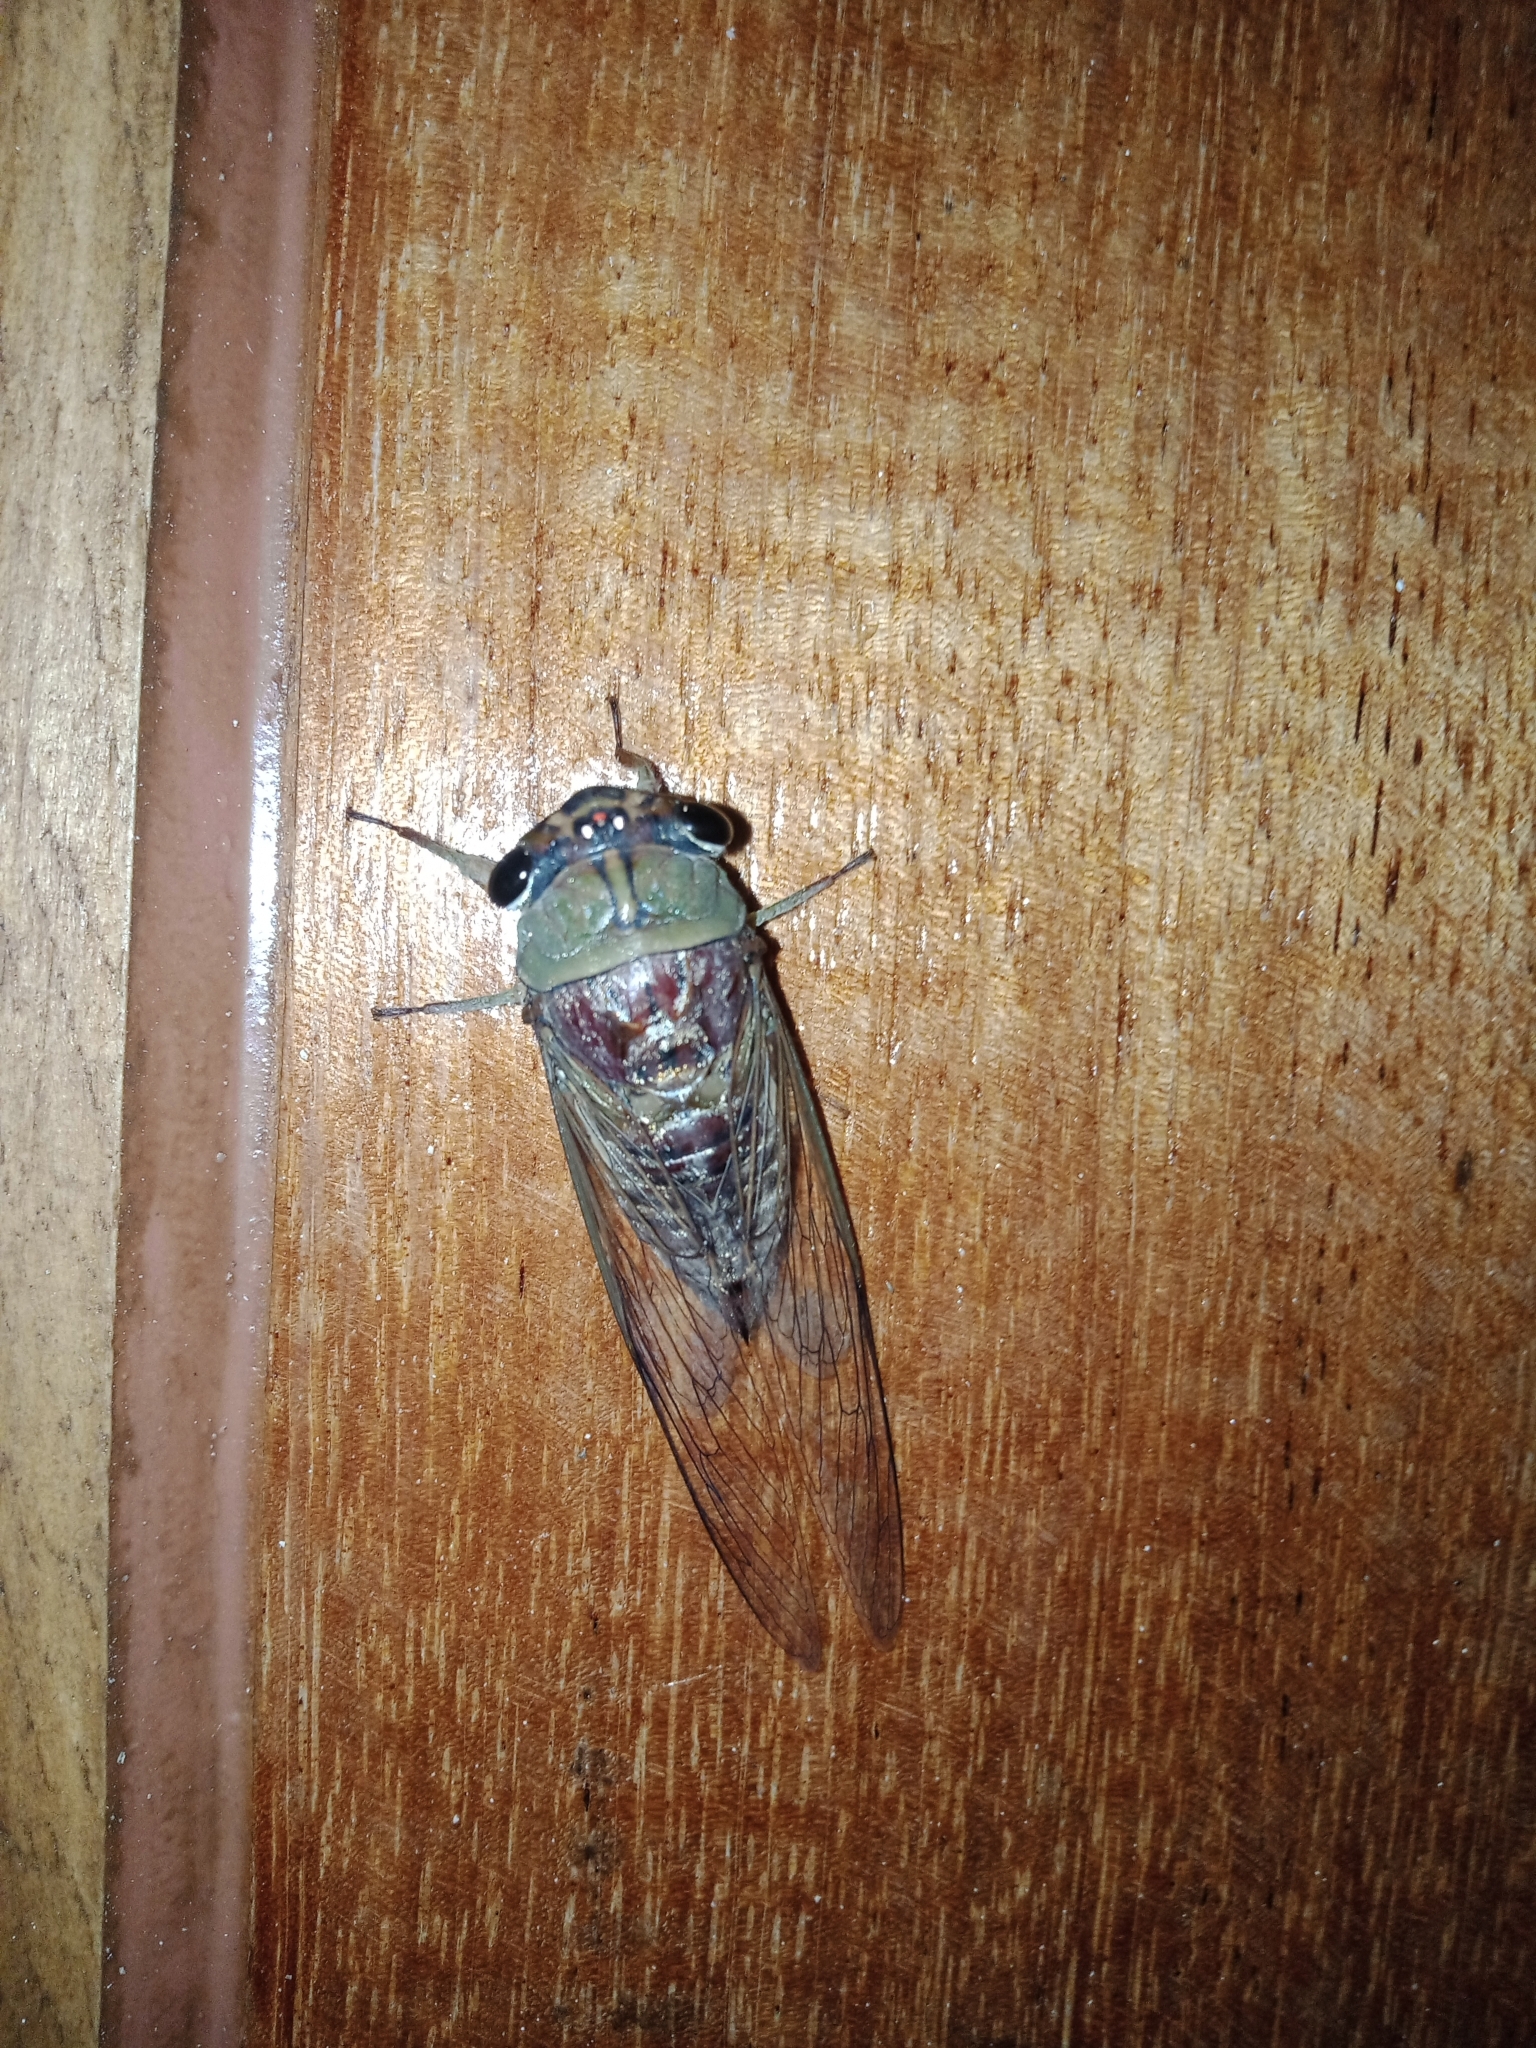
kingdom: Animalia
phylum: Arthropoda
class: Insecta
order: Hemiptera
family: Cicadidae
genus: Ayesha
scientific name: Ayesha serva
